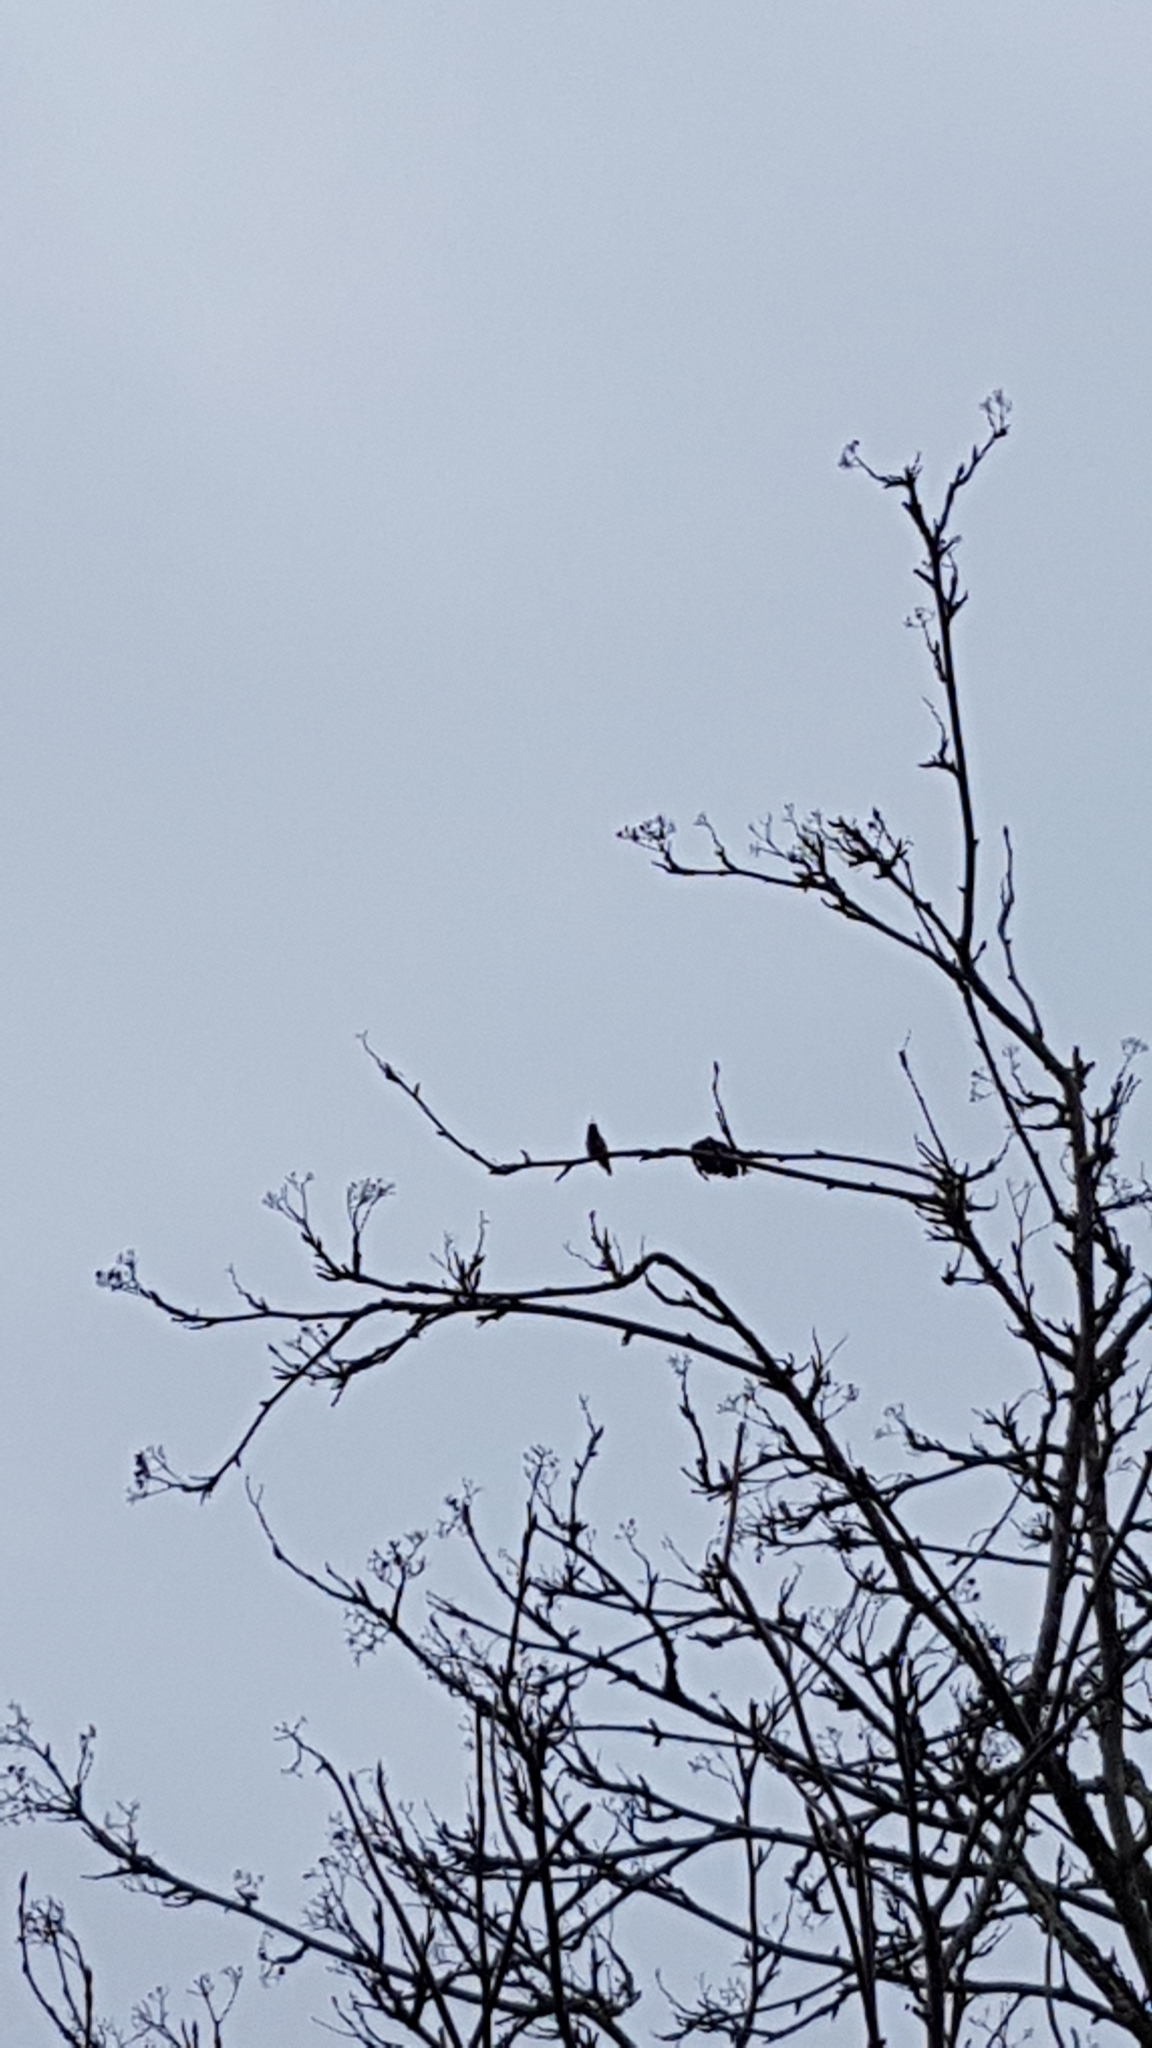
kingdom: Animalia
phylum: Chordata
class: Aves
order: Apodiformes
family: Trochilidae
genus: Calypte
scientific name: Calypte anna
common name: Anna's hummingbird
